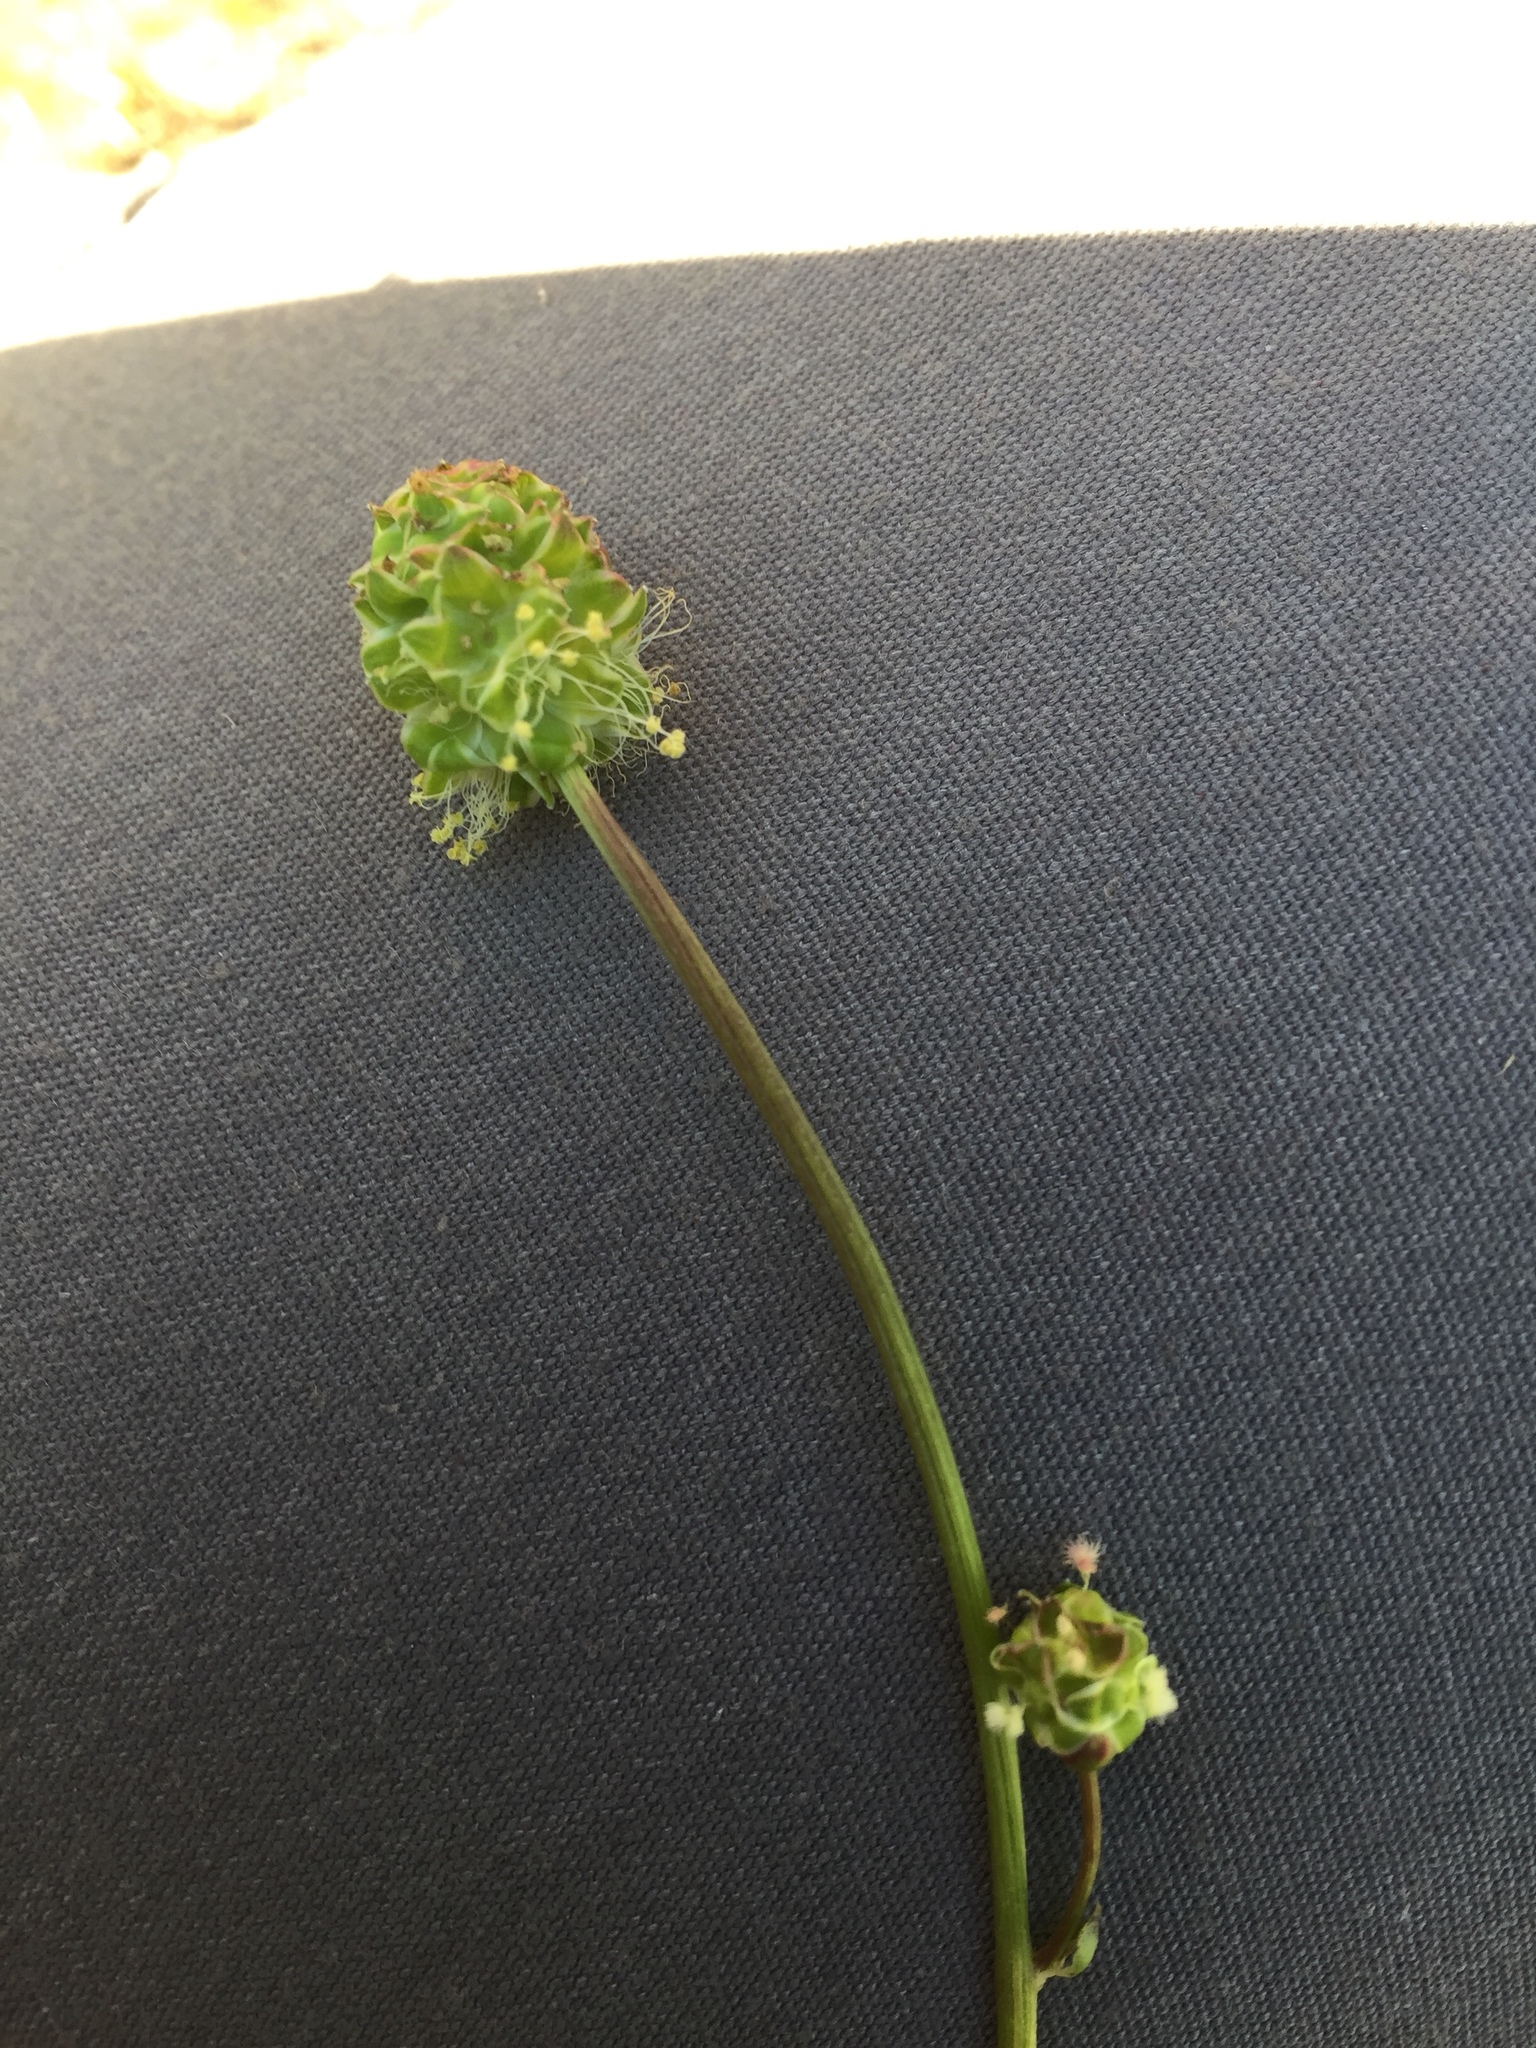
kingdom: Plantae
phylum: Tracheophyta
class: Magnoliopsida
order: Rosales
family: Rosaceae
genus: Poterium
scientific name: Poterium sanguisorba
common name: Salad burnet
